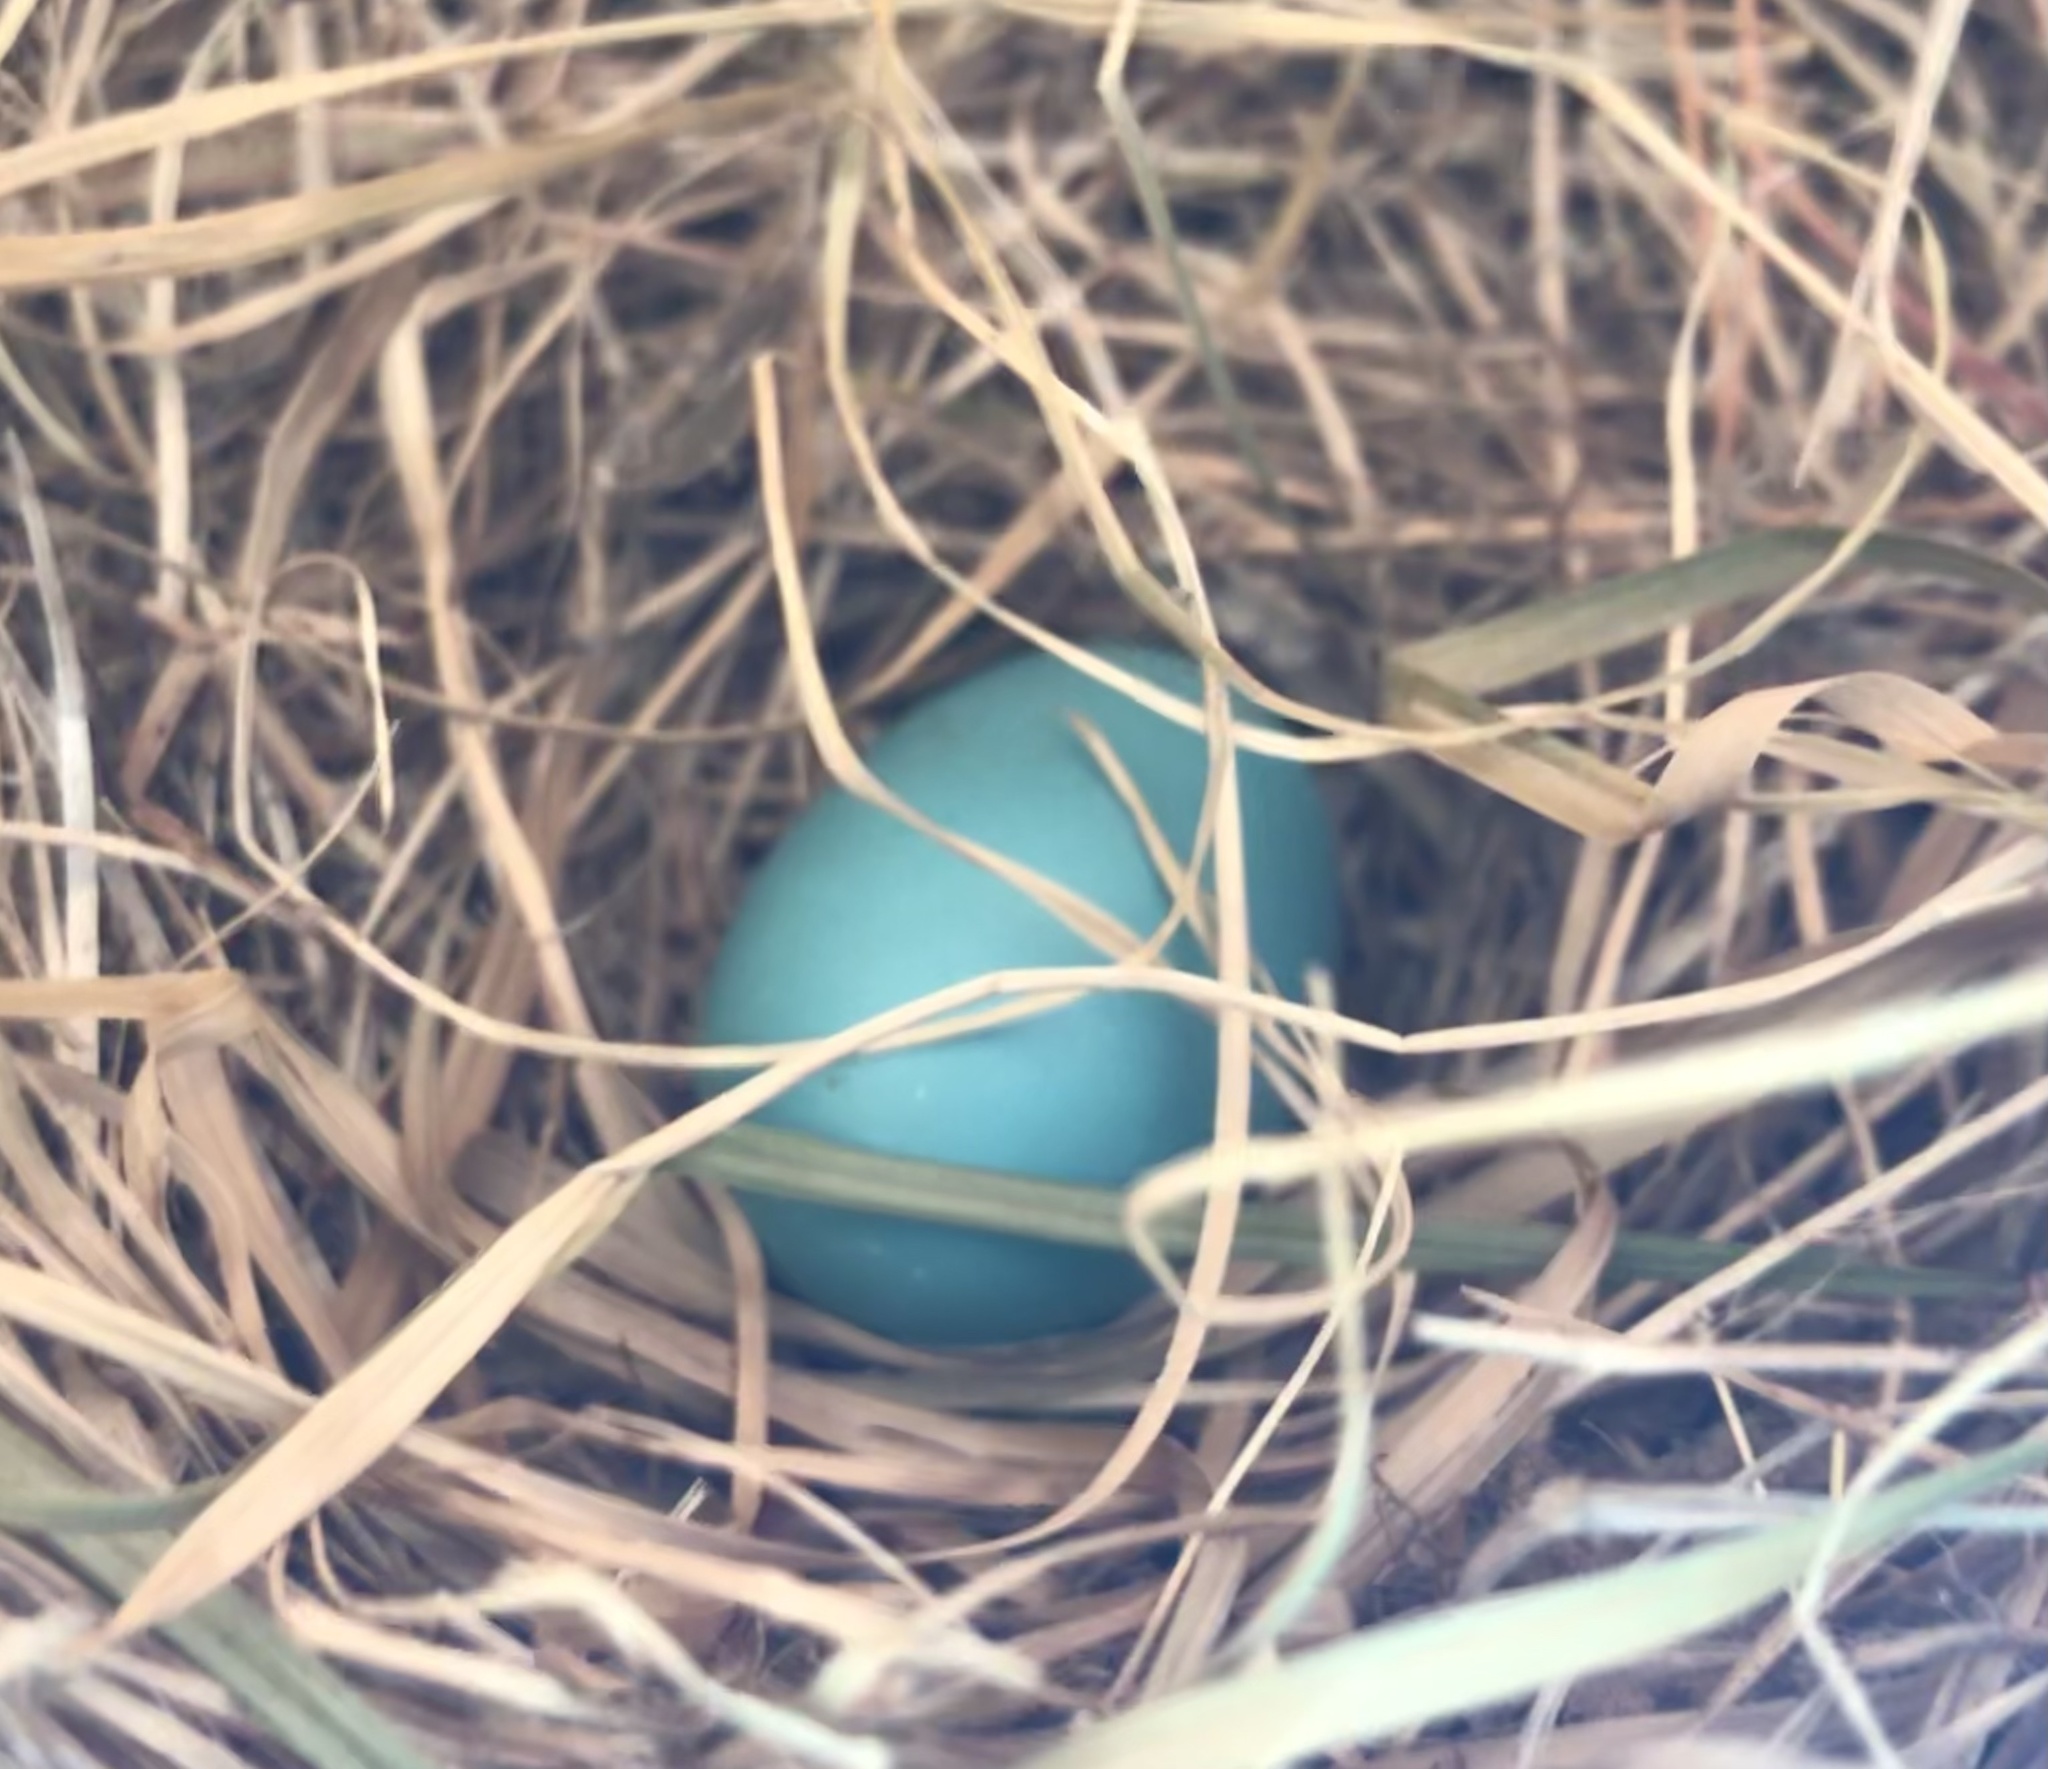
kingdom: Animalia
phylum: Chordata
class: Aves
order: Passeriformes
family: Turdidae
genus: Turdus
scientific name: Turdus migratorius
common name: American robin
